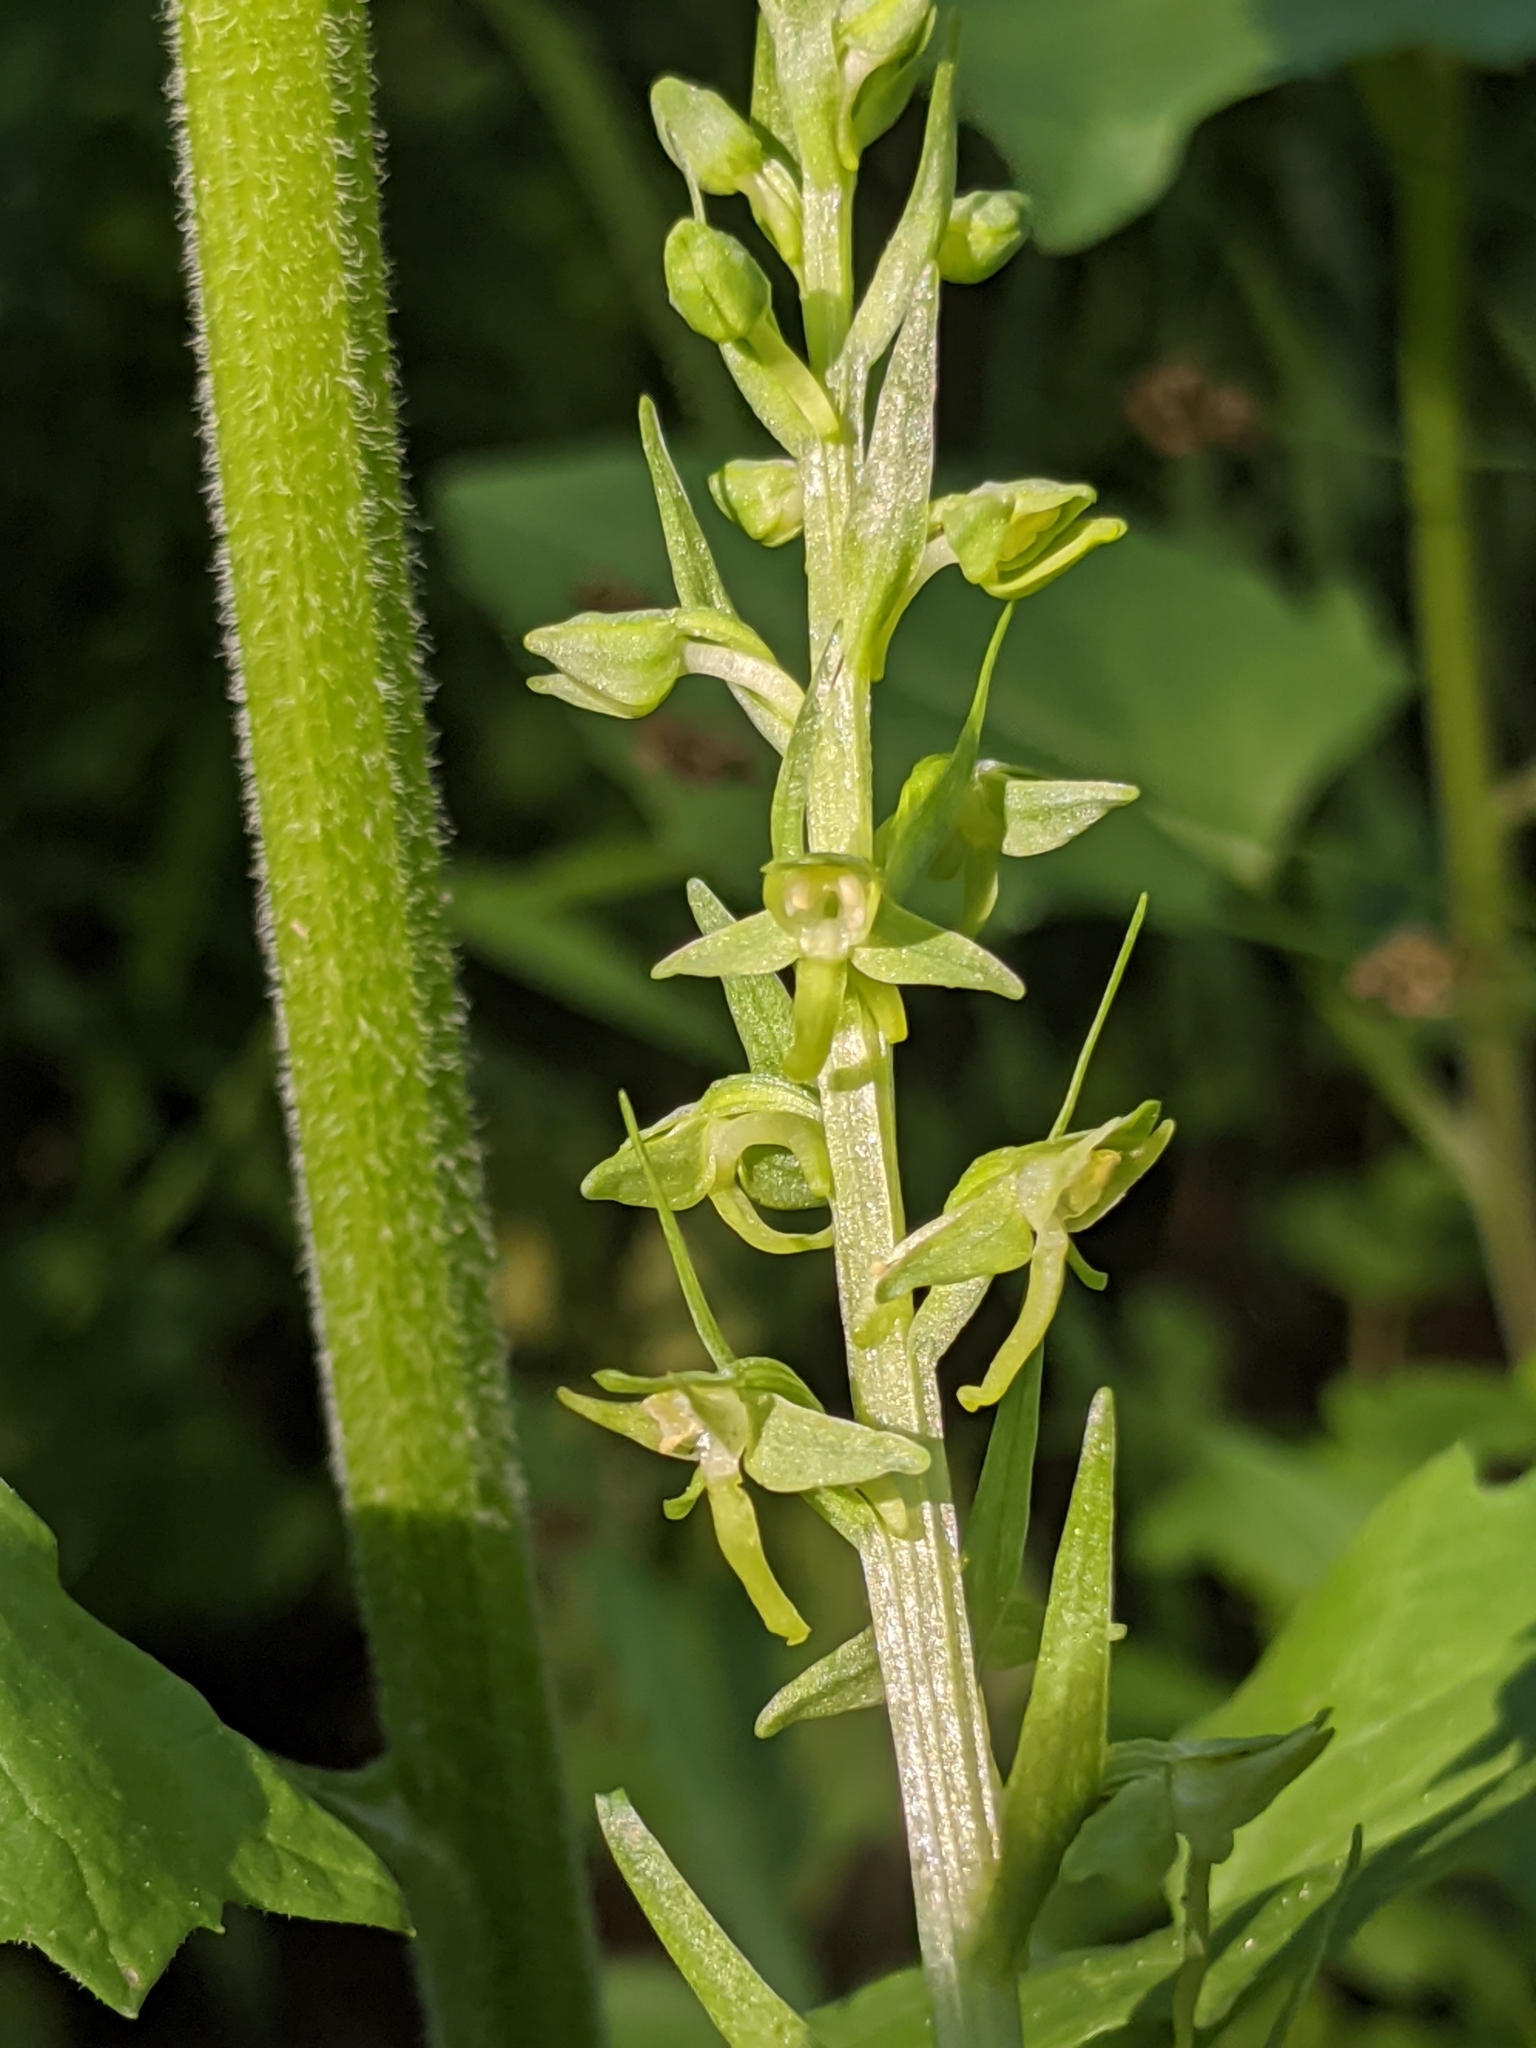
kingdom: Plantae
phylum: Tracheophyta
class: Liliopsida
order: Asparagales
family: Orchidaceae
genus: Platanthera
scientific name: Platanthera sparsiflora
